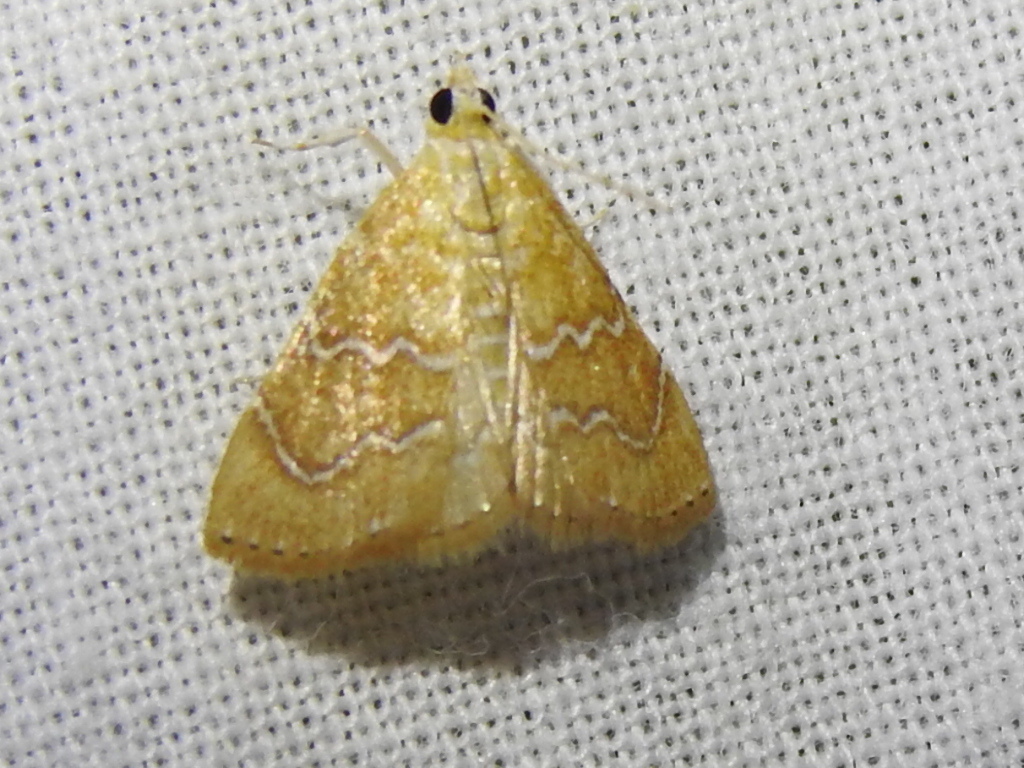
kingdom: Animalia
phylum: Arthropoda
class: Insecta
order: Lepidoptera
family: Crambidae
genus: Glaphyria
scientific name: Glaphyria sesquistrialis
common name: White-roped glaphyria
